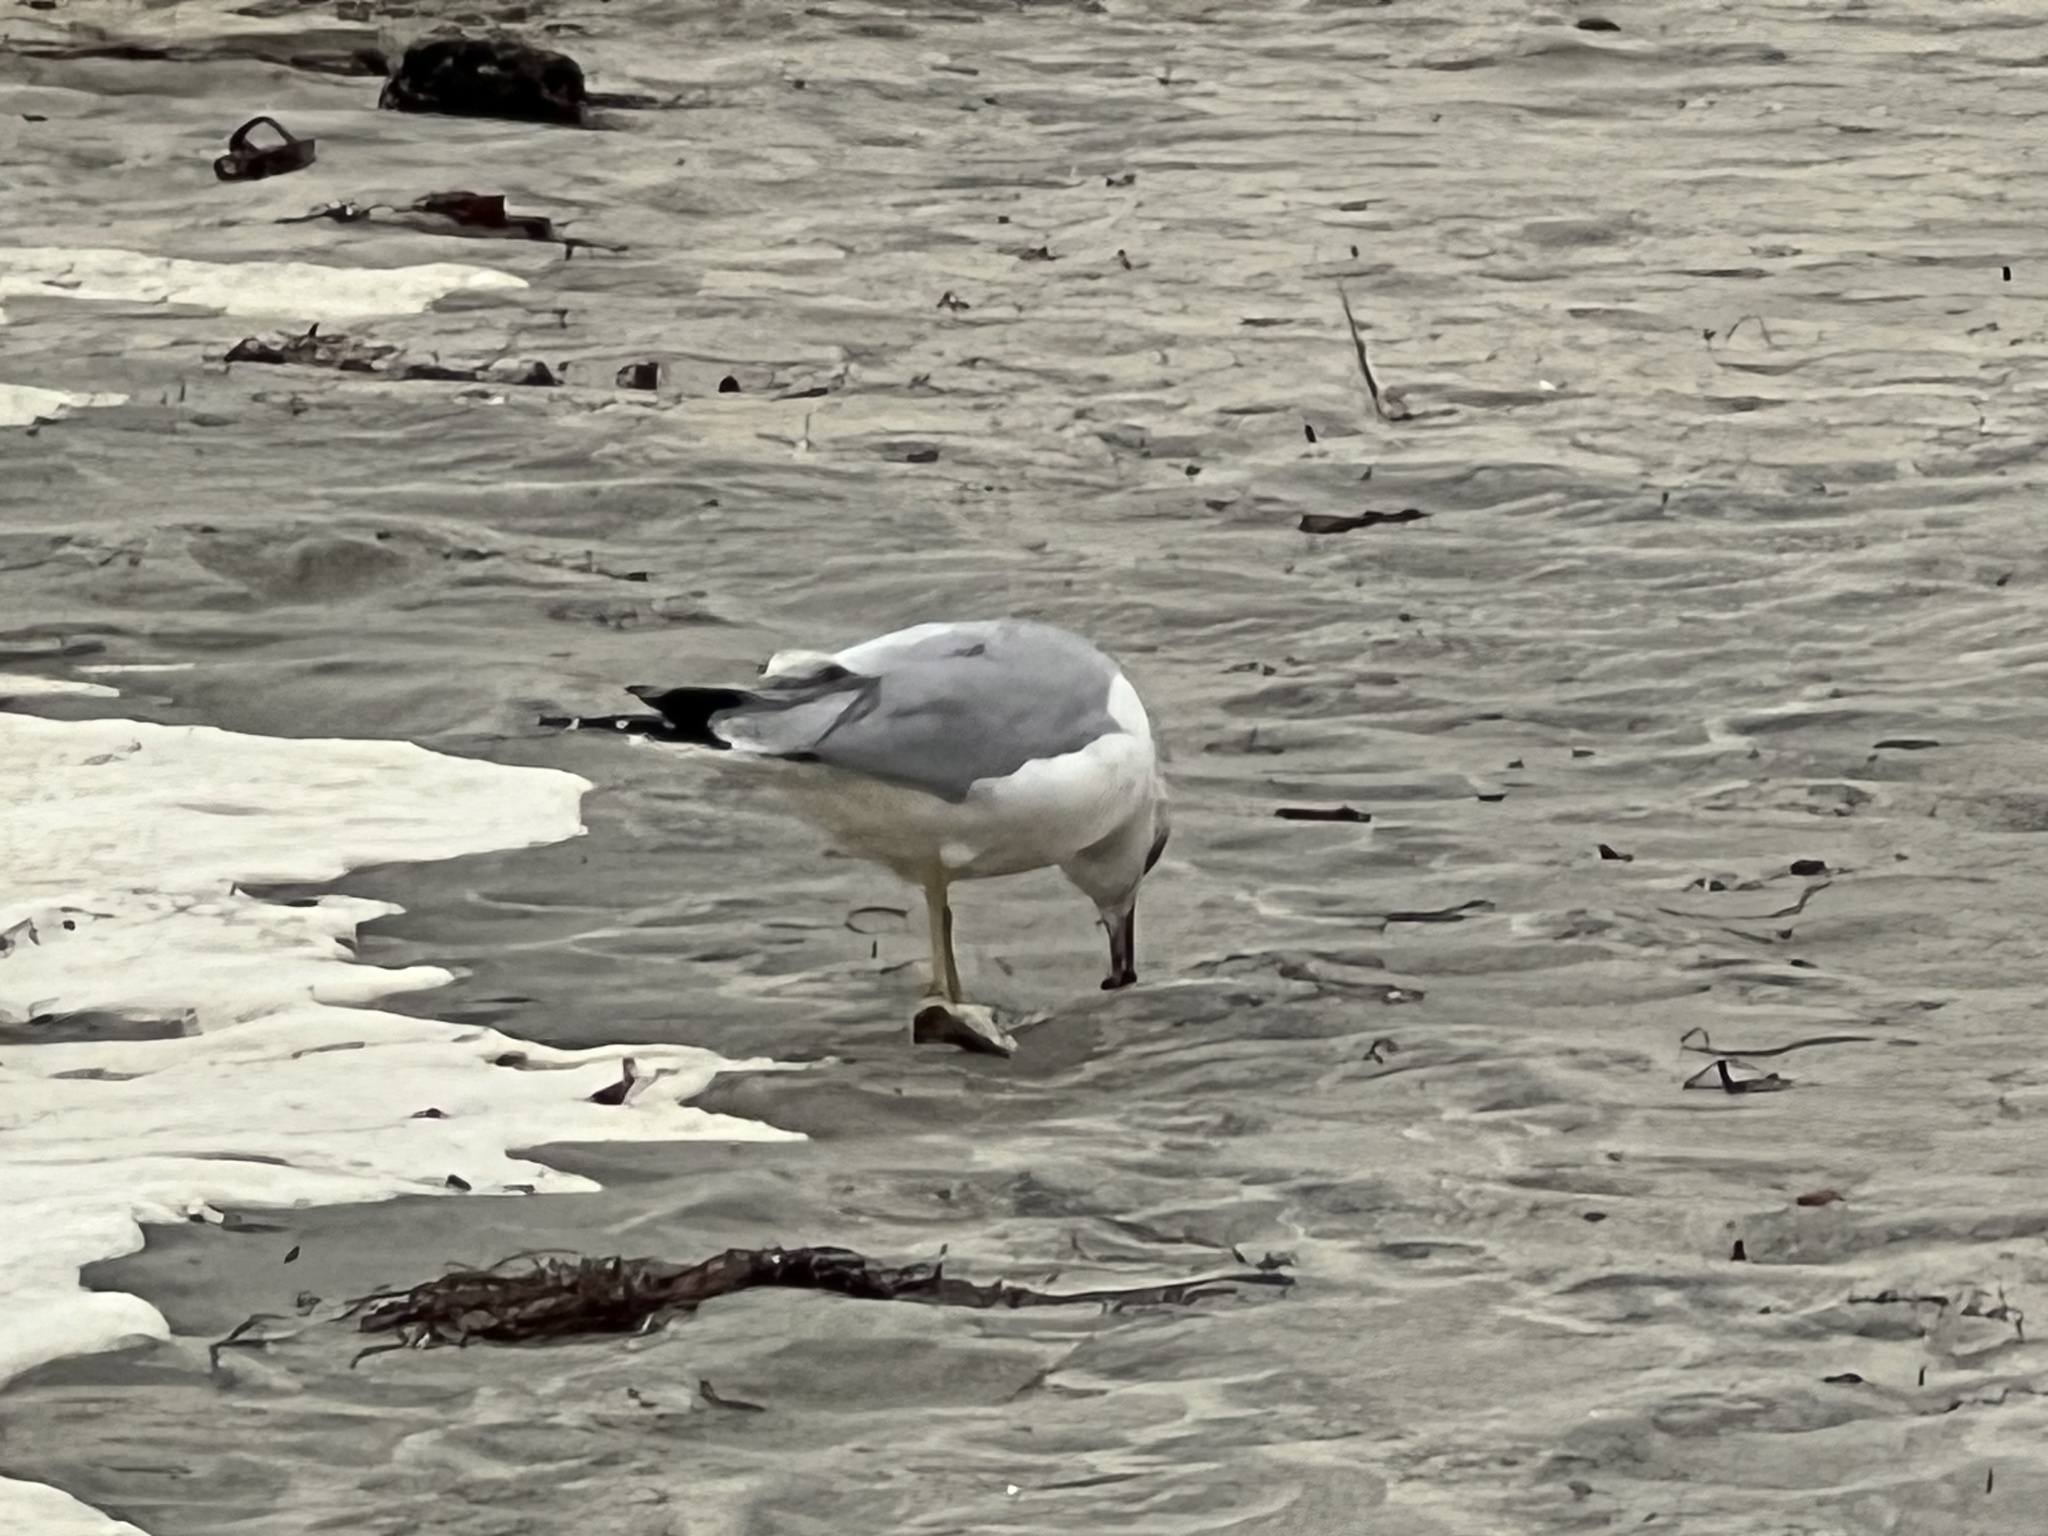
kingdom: Animalia
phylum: Chordata
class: Aves
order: Charadriiformes
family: Laridae
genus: Larus
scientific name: Larus delawarensis
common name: Ring-billed gull
